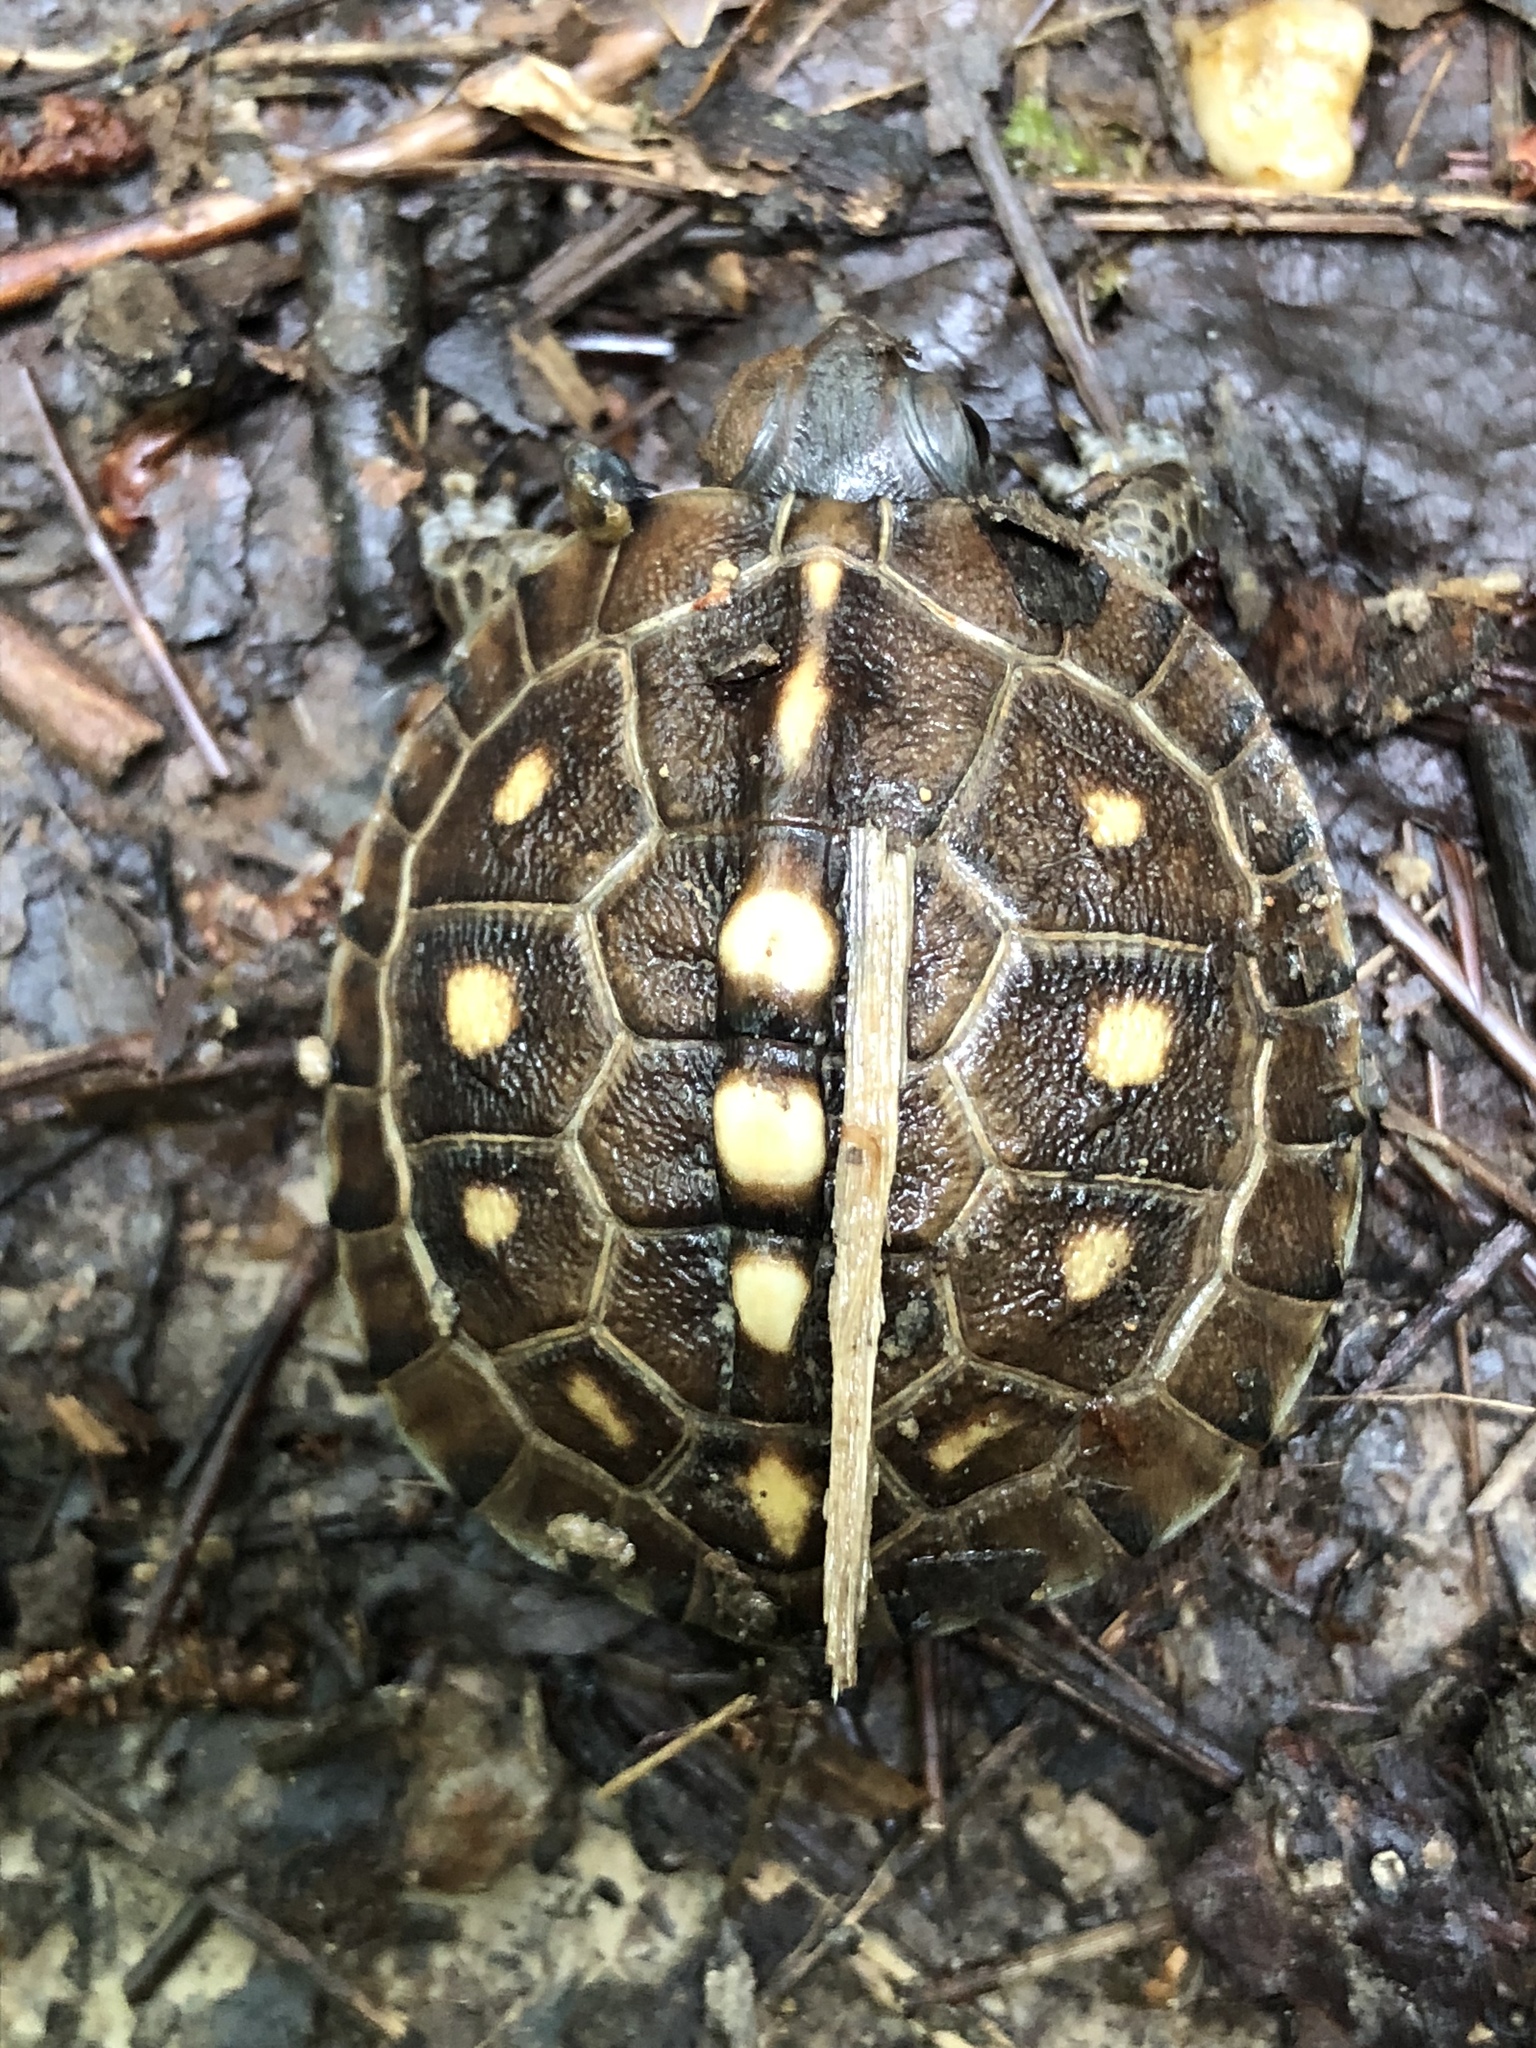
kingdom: Animalia
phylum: Chordata
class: Testudines
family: Emydidae
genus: Terrapene
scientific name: Terrapene carolina
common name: Common box turtle
